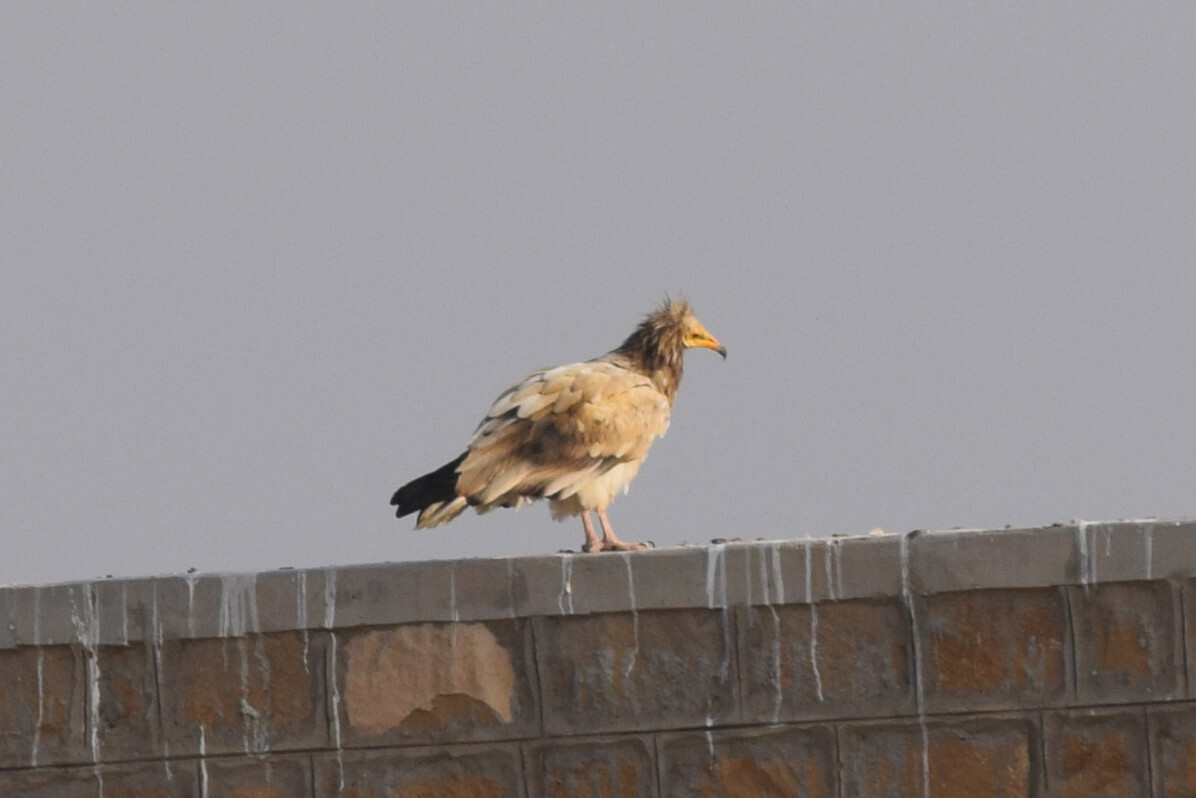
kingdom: Animalia
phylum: Chordata
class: Aves
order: Accipitriformes
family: Accipitridae
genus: Neophron
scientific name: Neophron percnopterus
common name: Egyptian vulture
